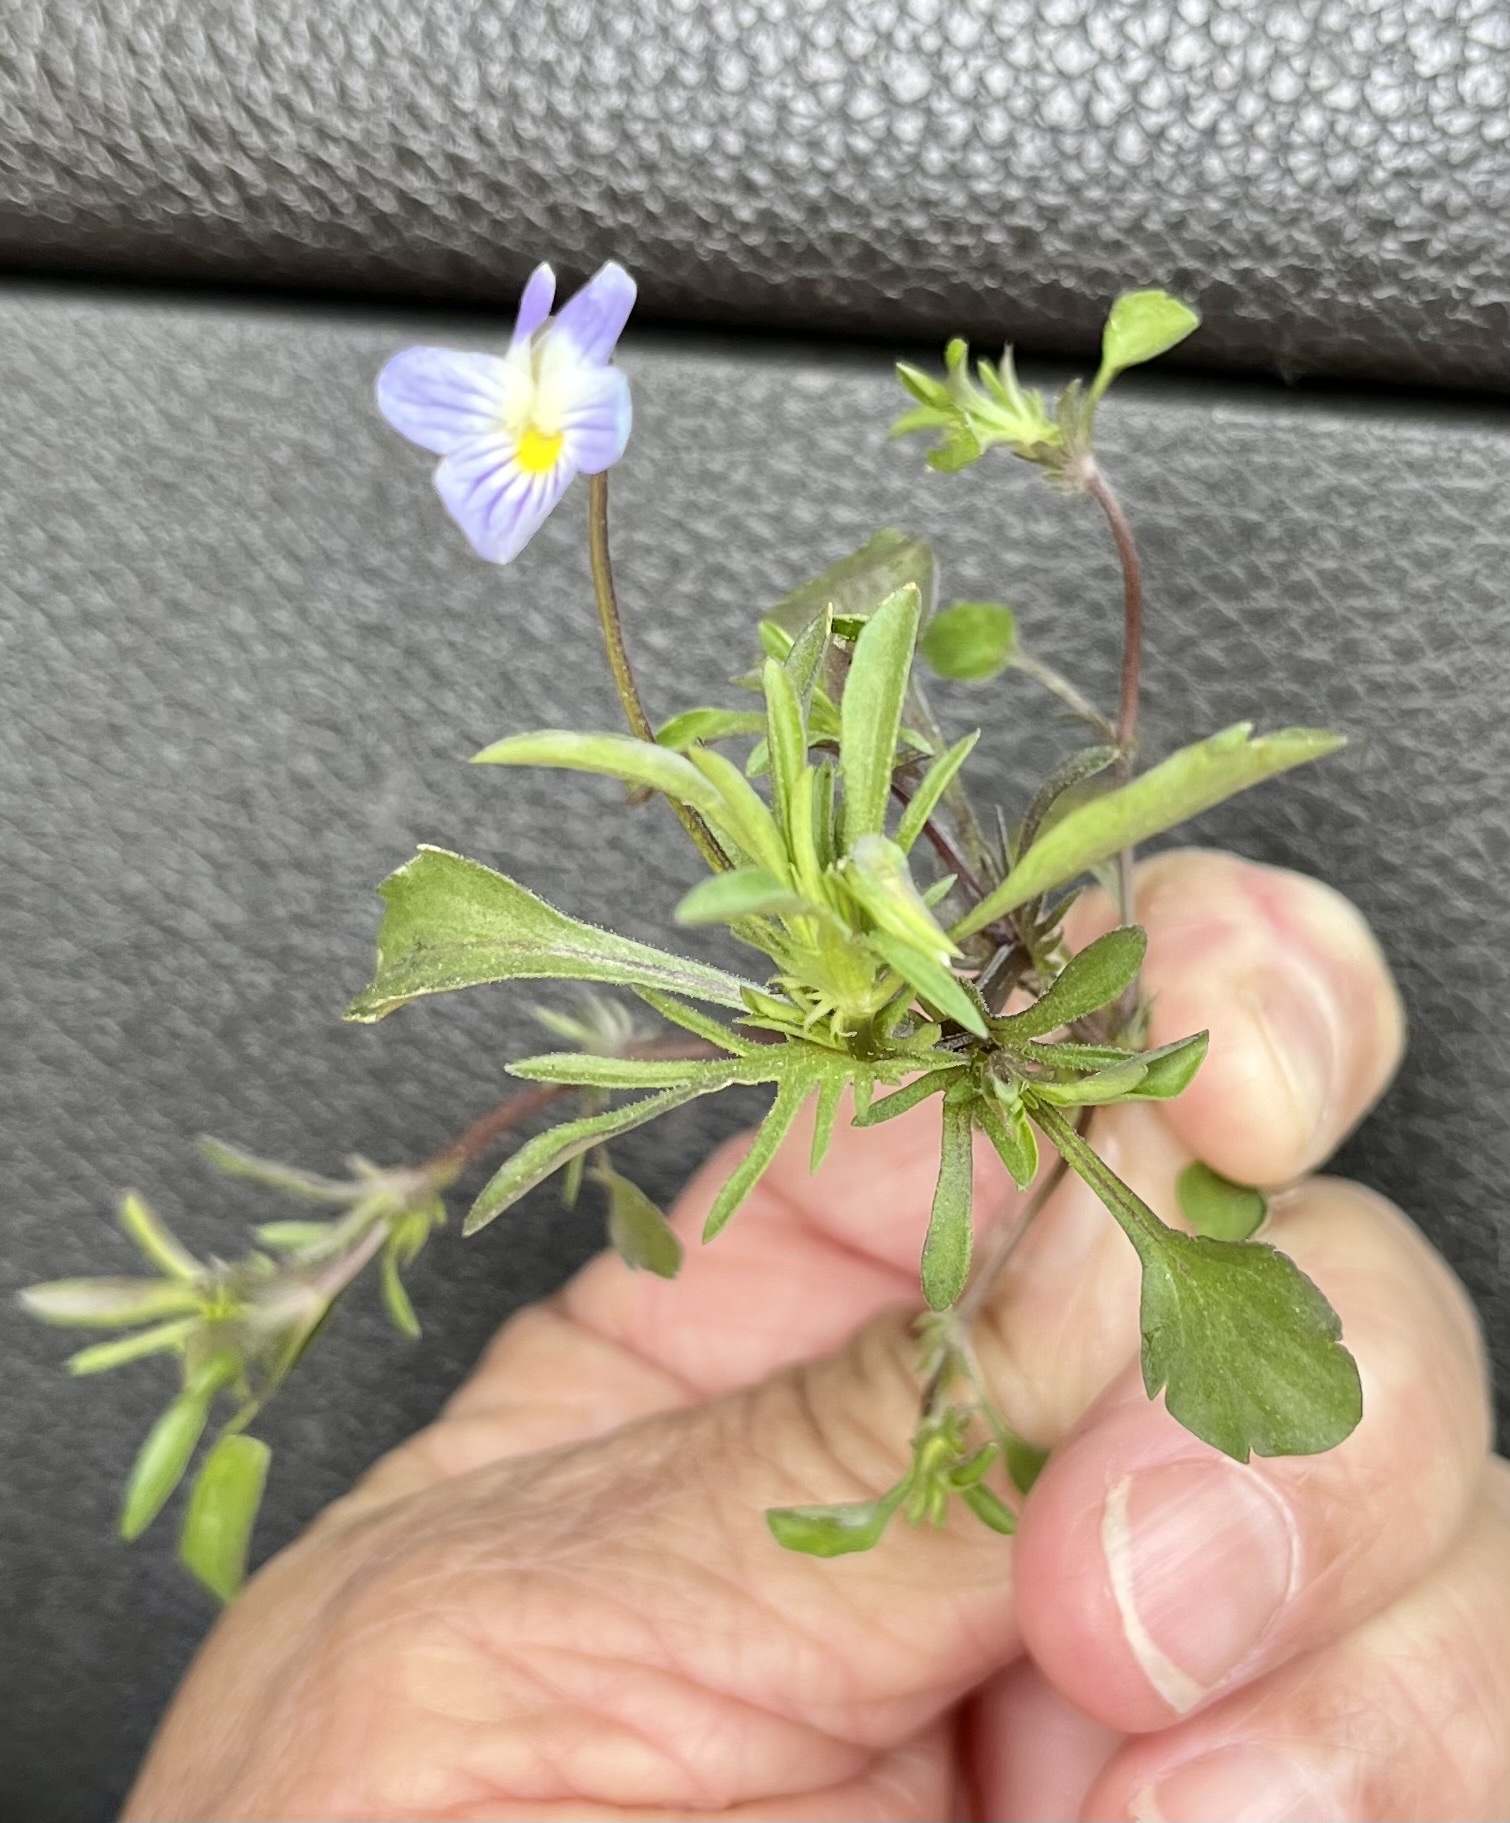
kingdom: Plantae
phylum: Tracheophyta
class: Magnoliopsida
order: Malpighiales
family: Violaceae
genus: Viola
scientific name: Viola rafinesquei
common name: American field pansy
